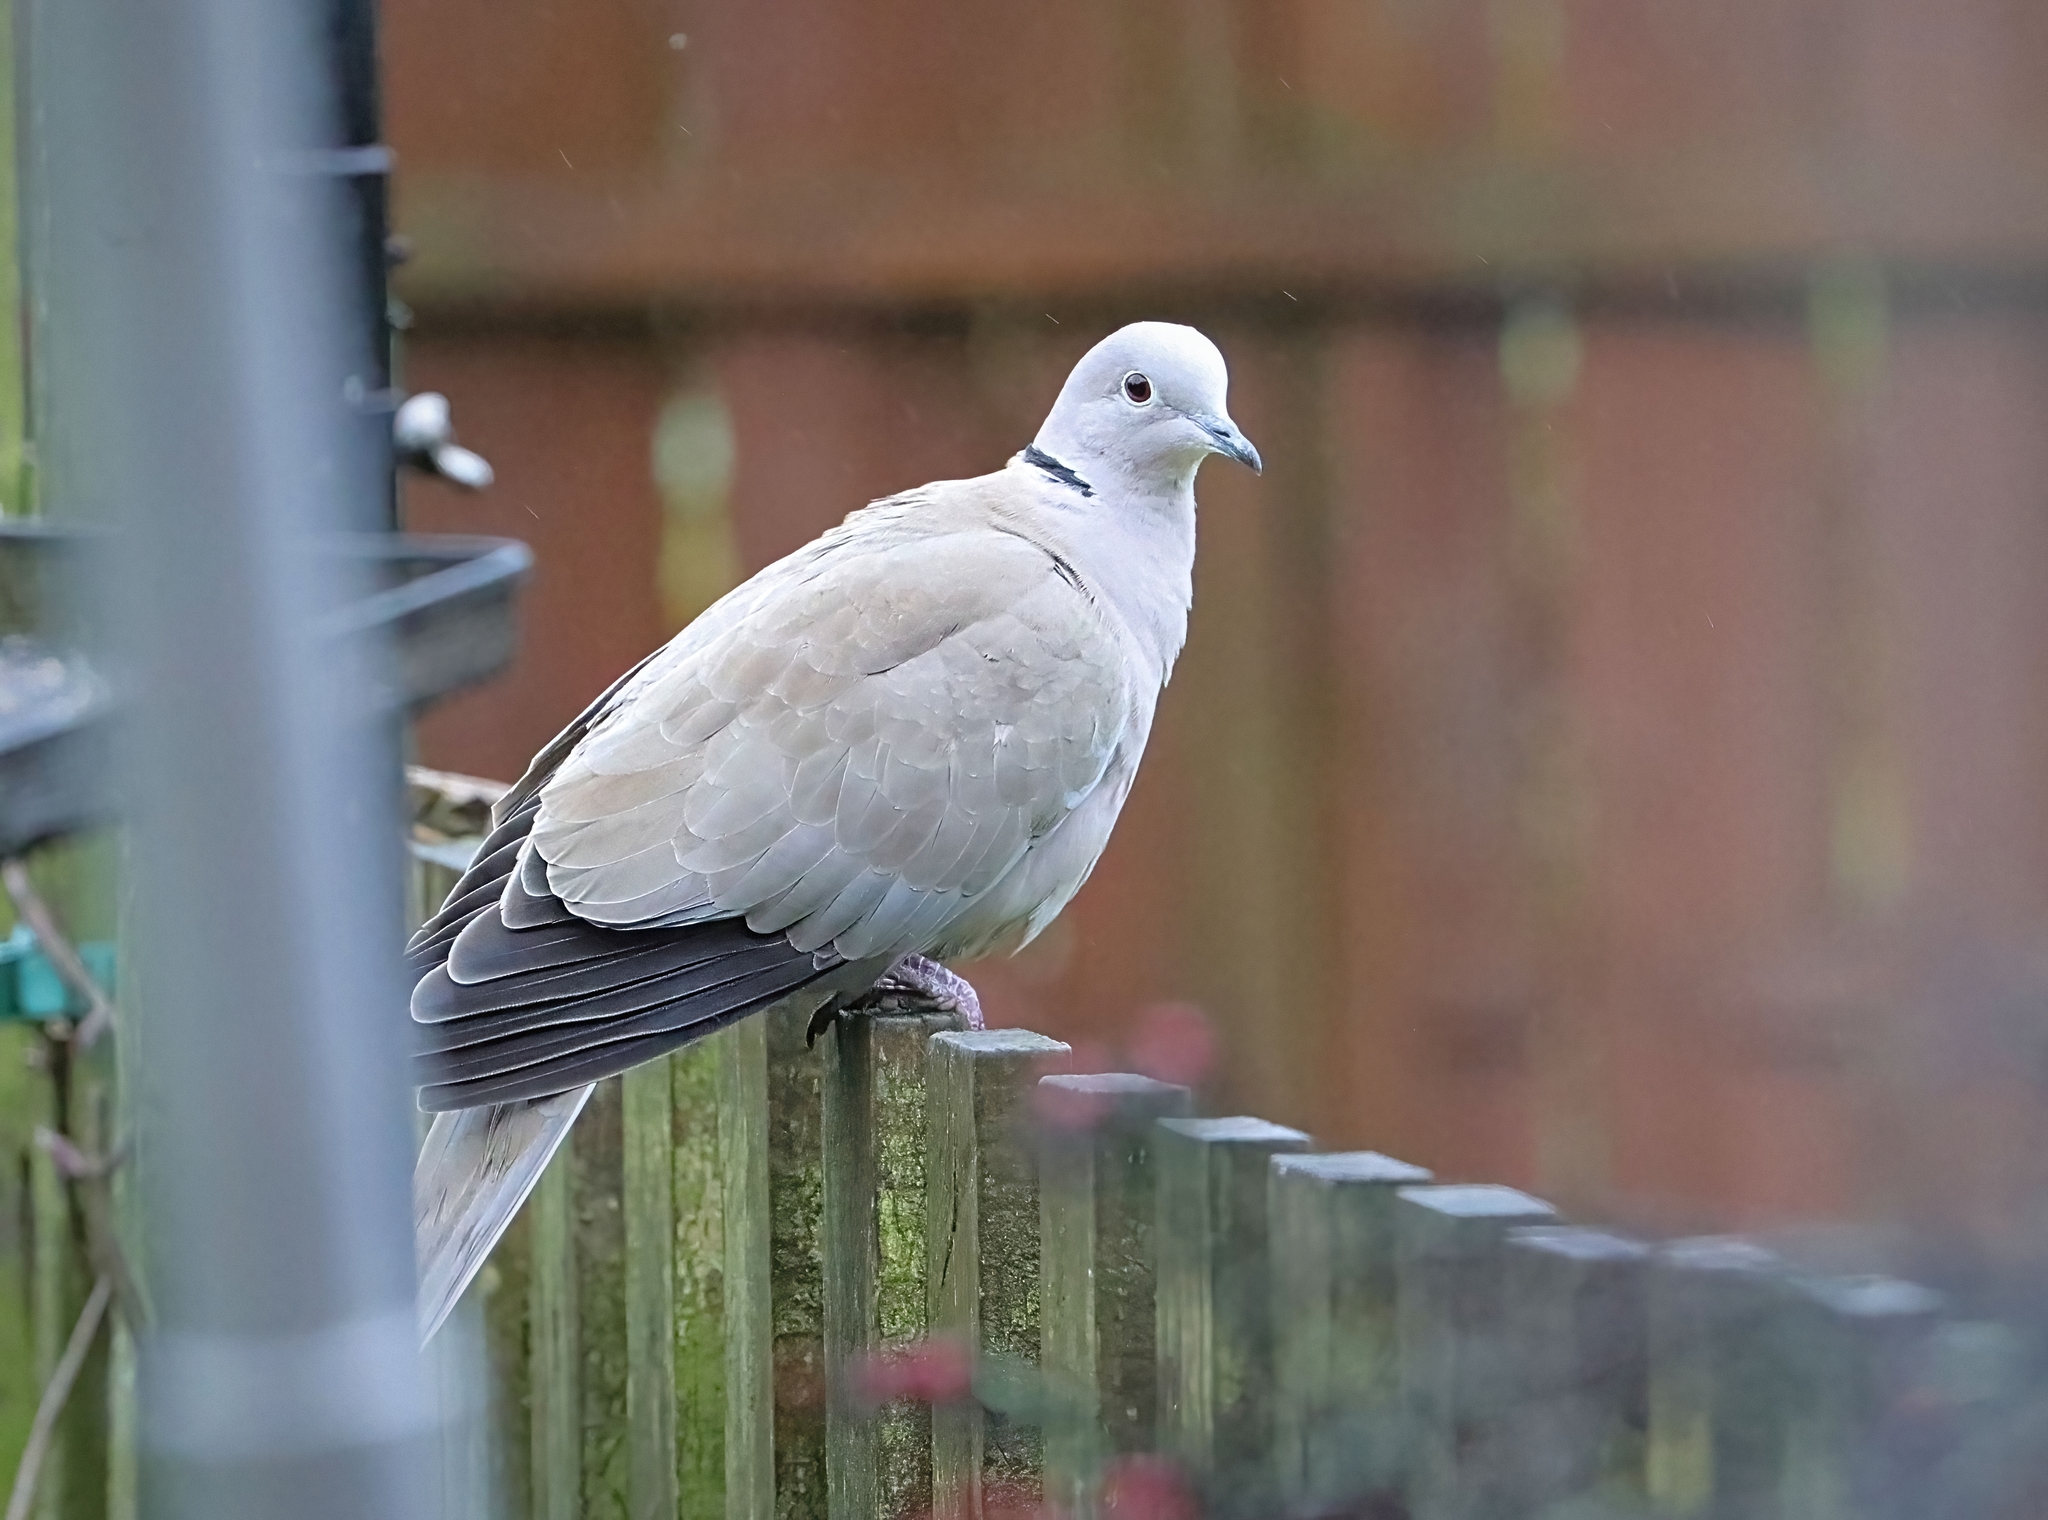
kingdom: Animalia
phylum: Chordata
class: Aves
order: Columbiformes
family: Columbidae
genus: Streptopelia
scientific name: Streptopelia decaocto
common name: Eurasian collared dove
